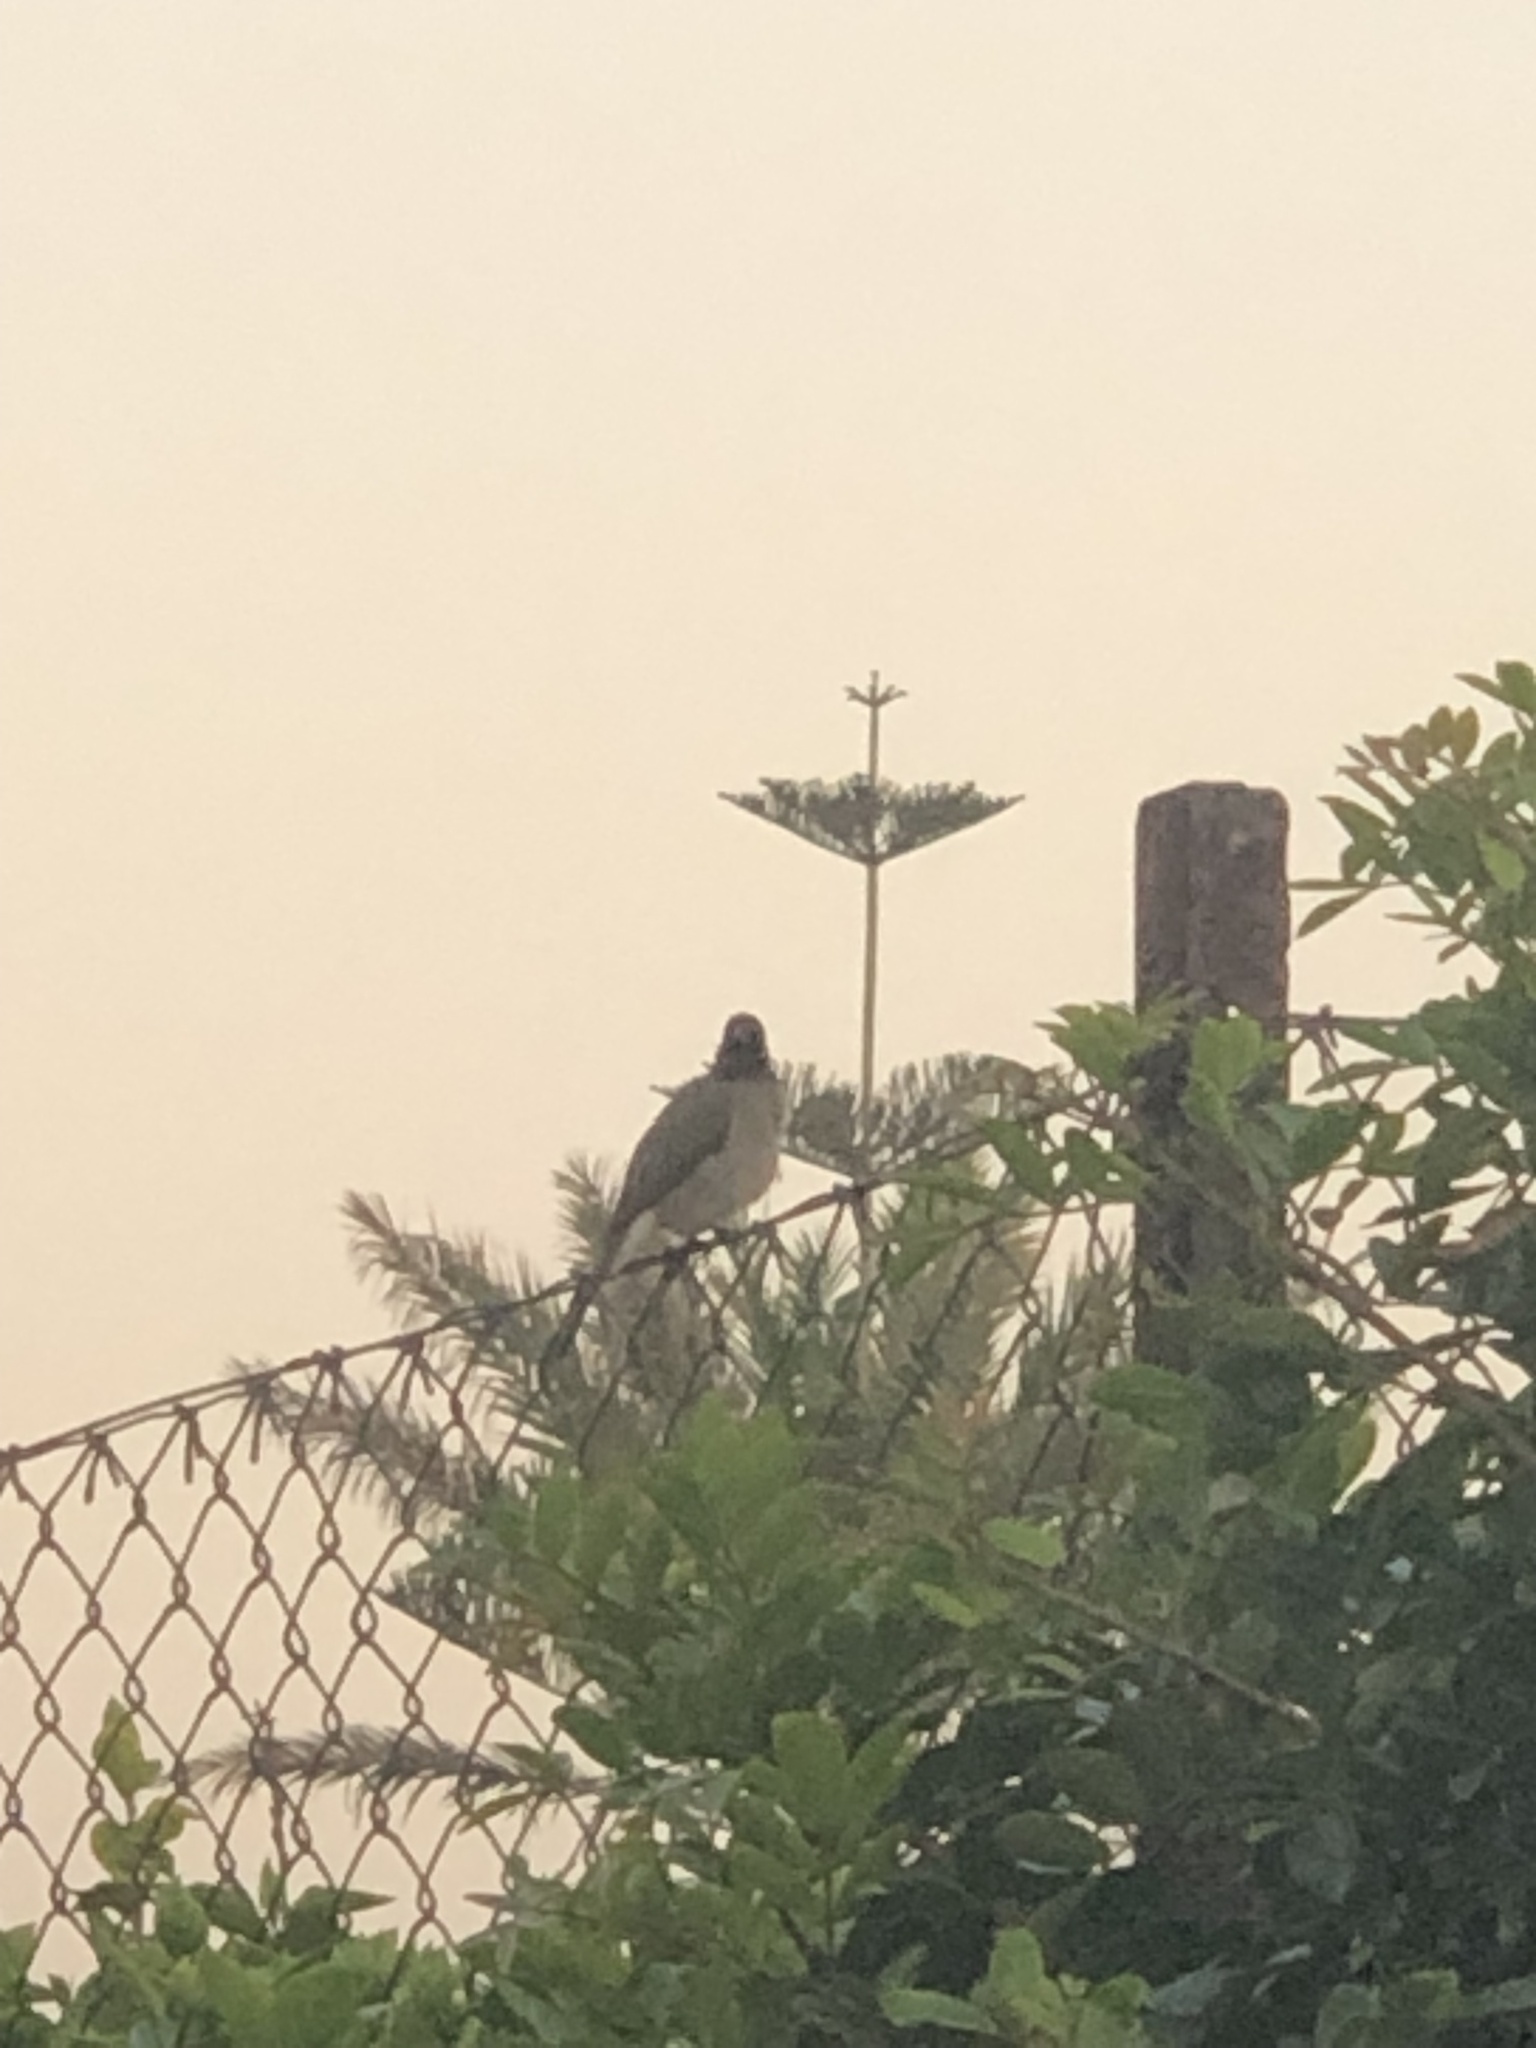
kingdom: Animalia
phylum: Chordata
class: Aves
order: Passeriformes
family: Pycnonotidae
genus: Pycnonotus
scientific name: Pycnonotus barbatus
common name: Common bulbul
